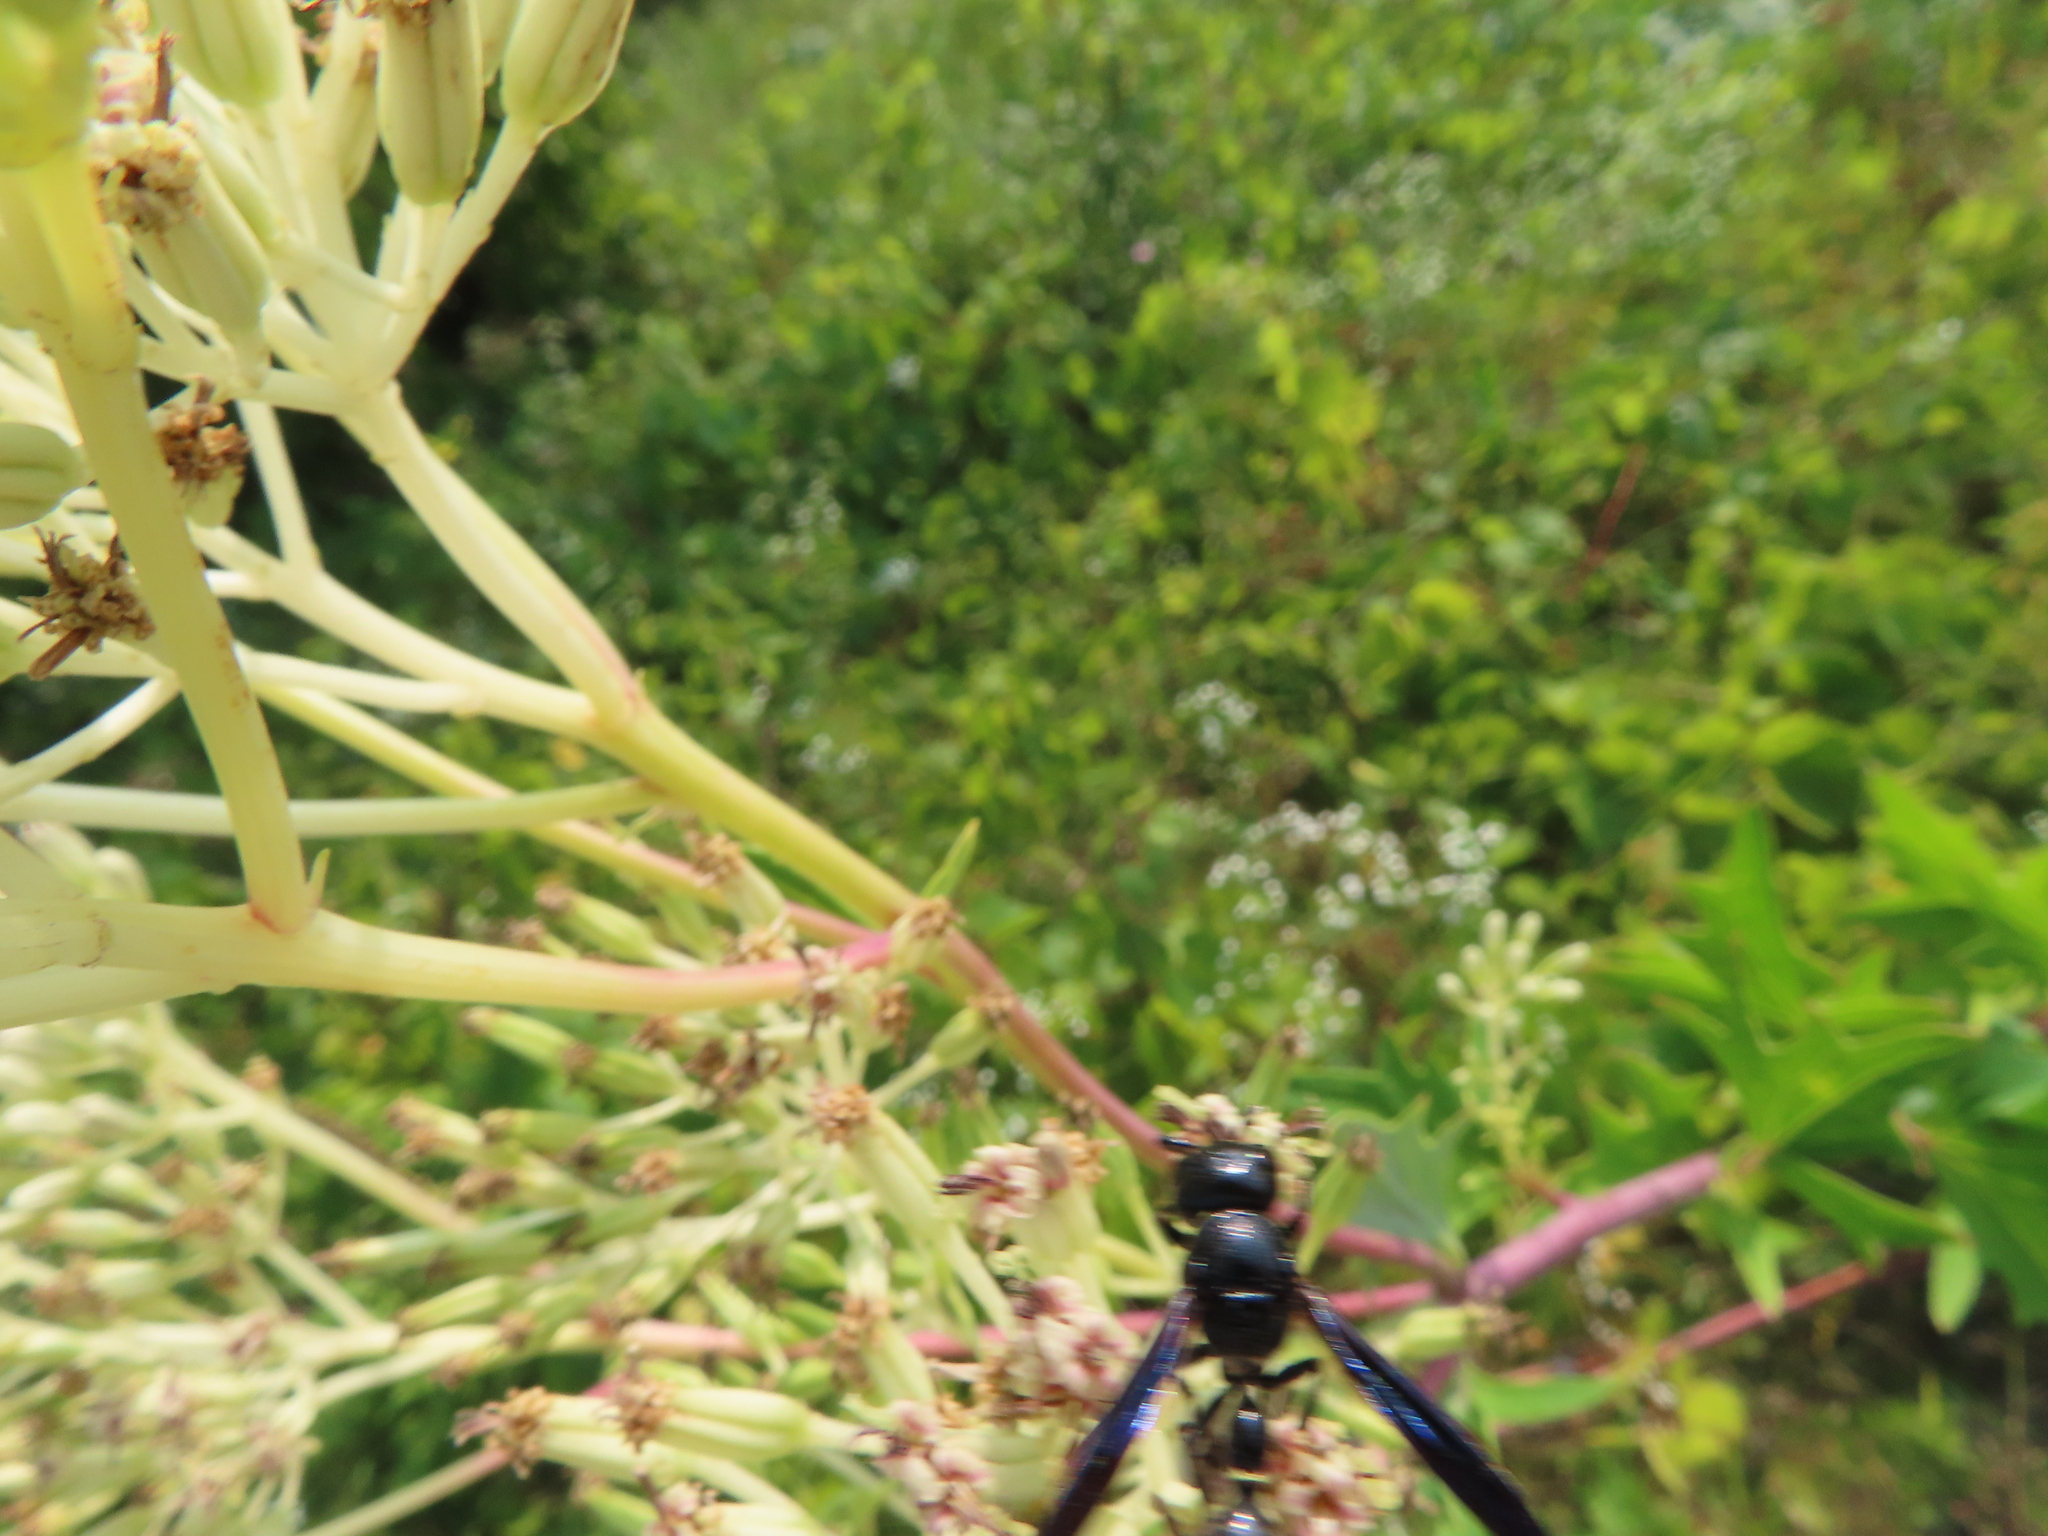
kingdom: Animalia
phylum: Arthropoda
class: Insecta
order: Hymenoptera
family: Eumenidae
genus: Zethus
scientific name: Zethus spinipes
